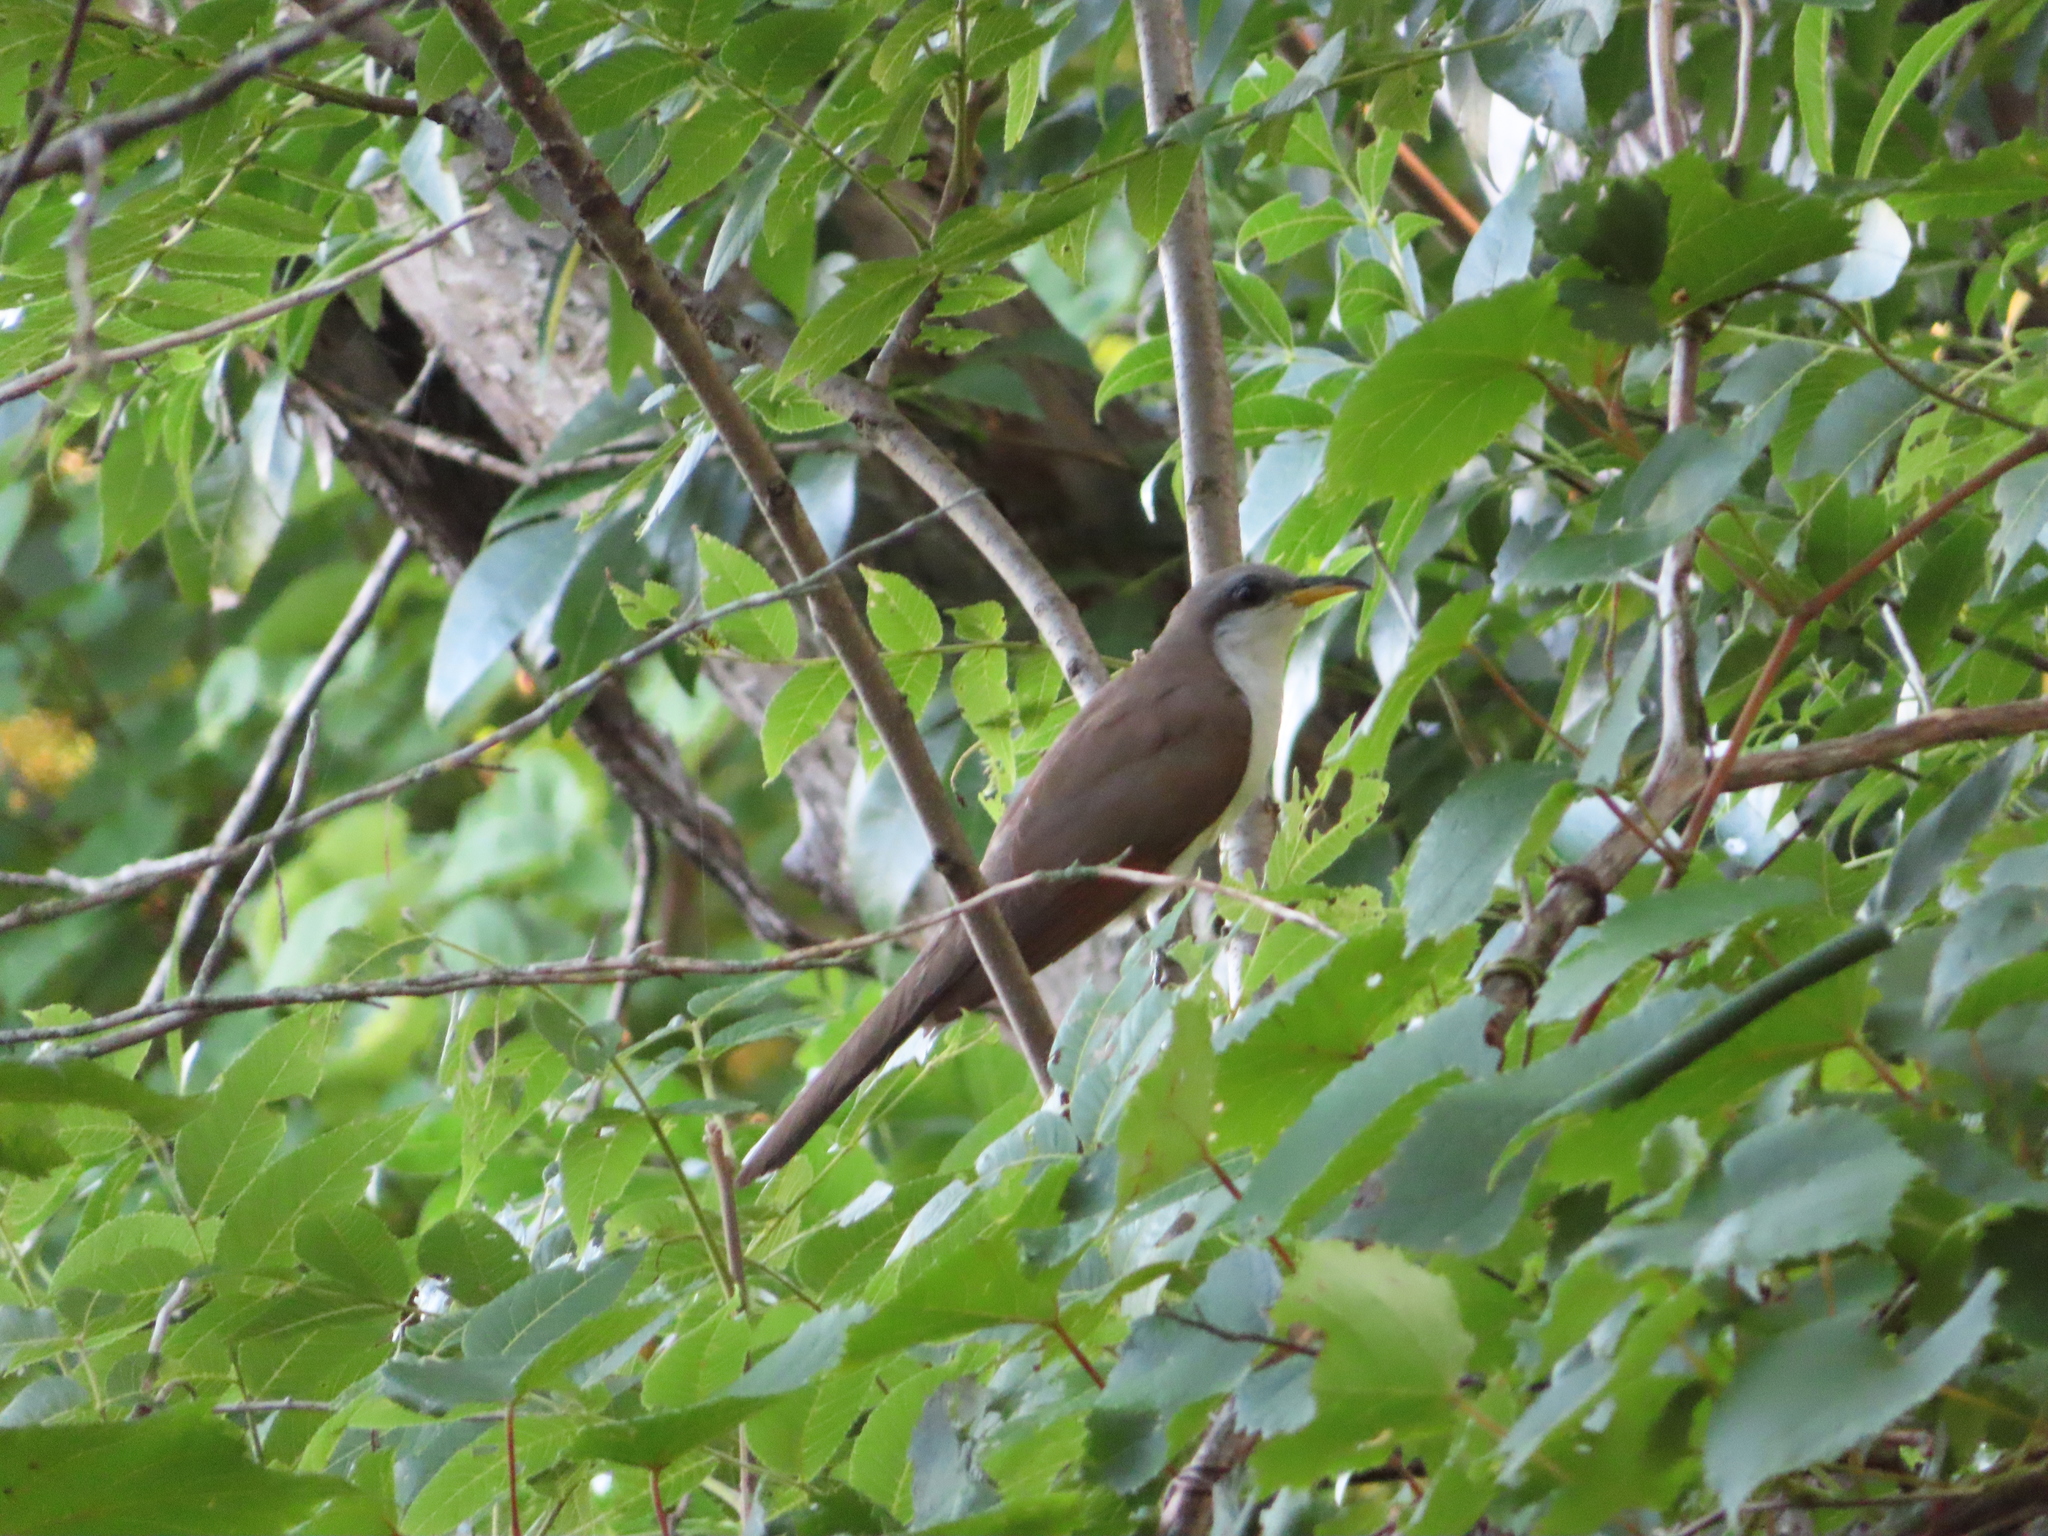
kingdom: Animalia
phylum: Chordata
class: Aves
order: Cuculiformes
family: Cuculidae
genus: Coccyzus
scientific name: Coccyzus americanus
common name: Yellow-billed cuckoo
